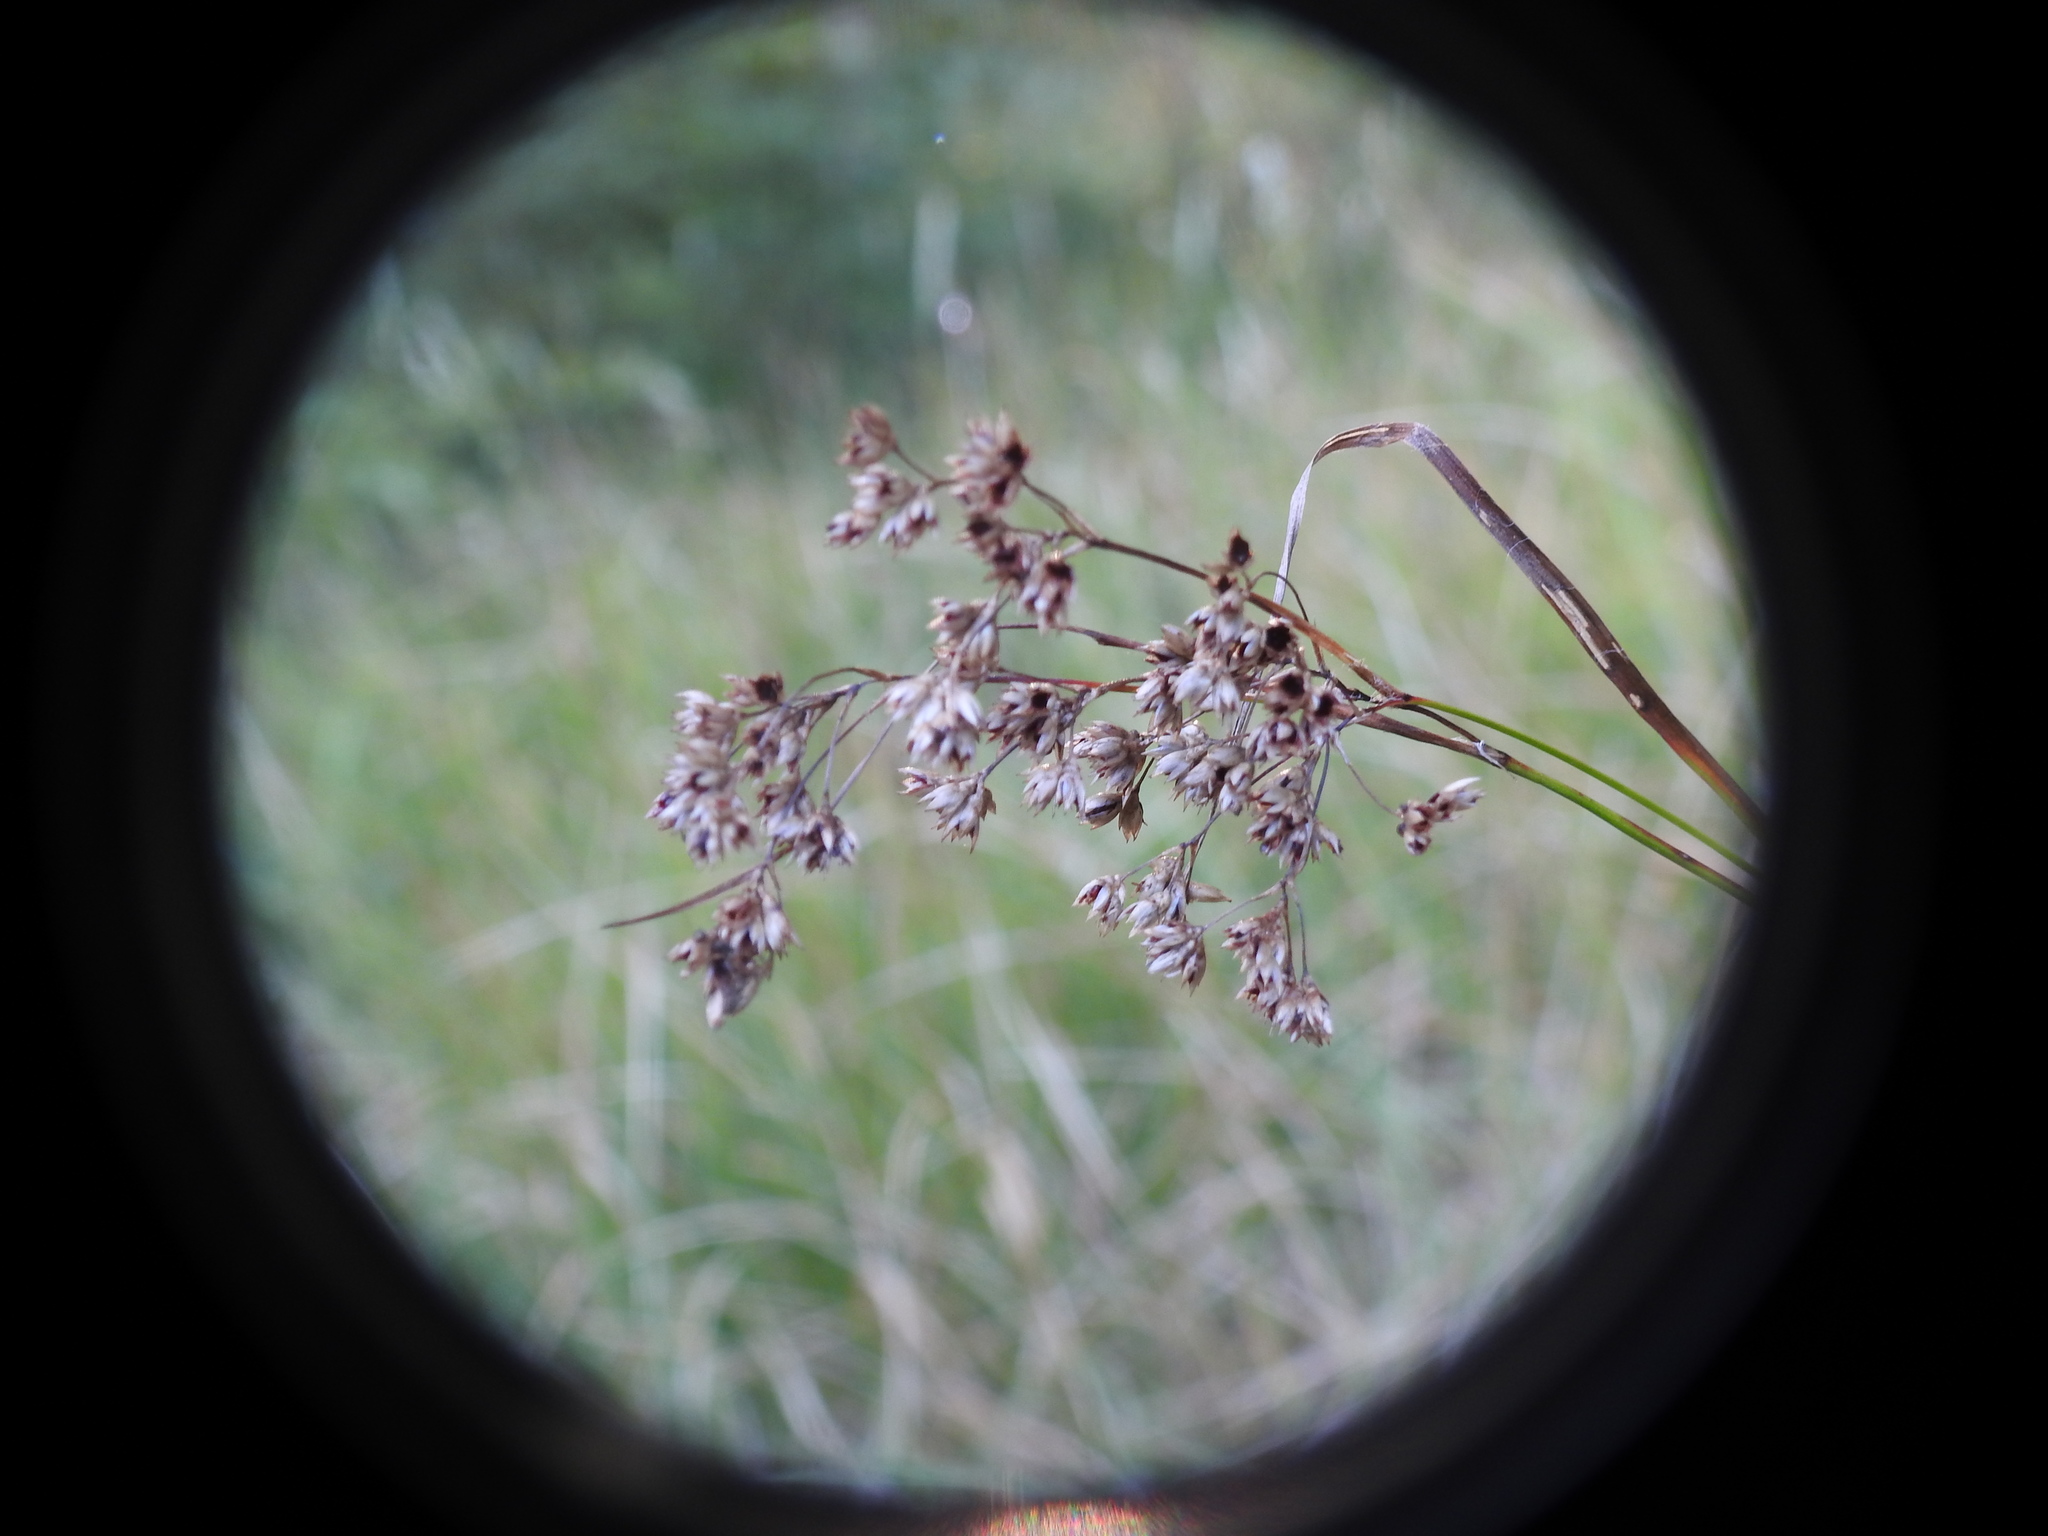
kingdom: Plantae
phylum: Tracheophyta
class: Liliopsida
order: Poales
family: Juncaceae
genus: Luzula
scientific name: Luzula luzuloides
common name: White wood-rush
